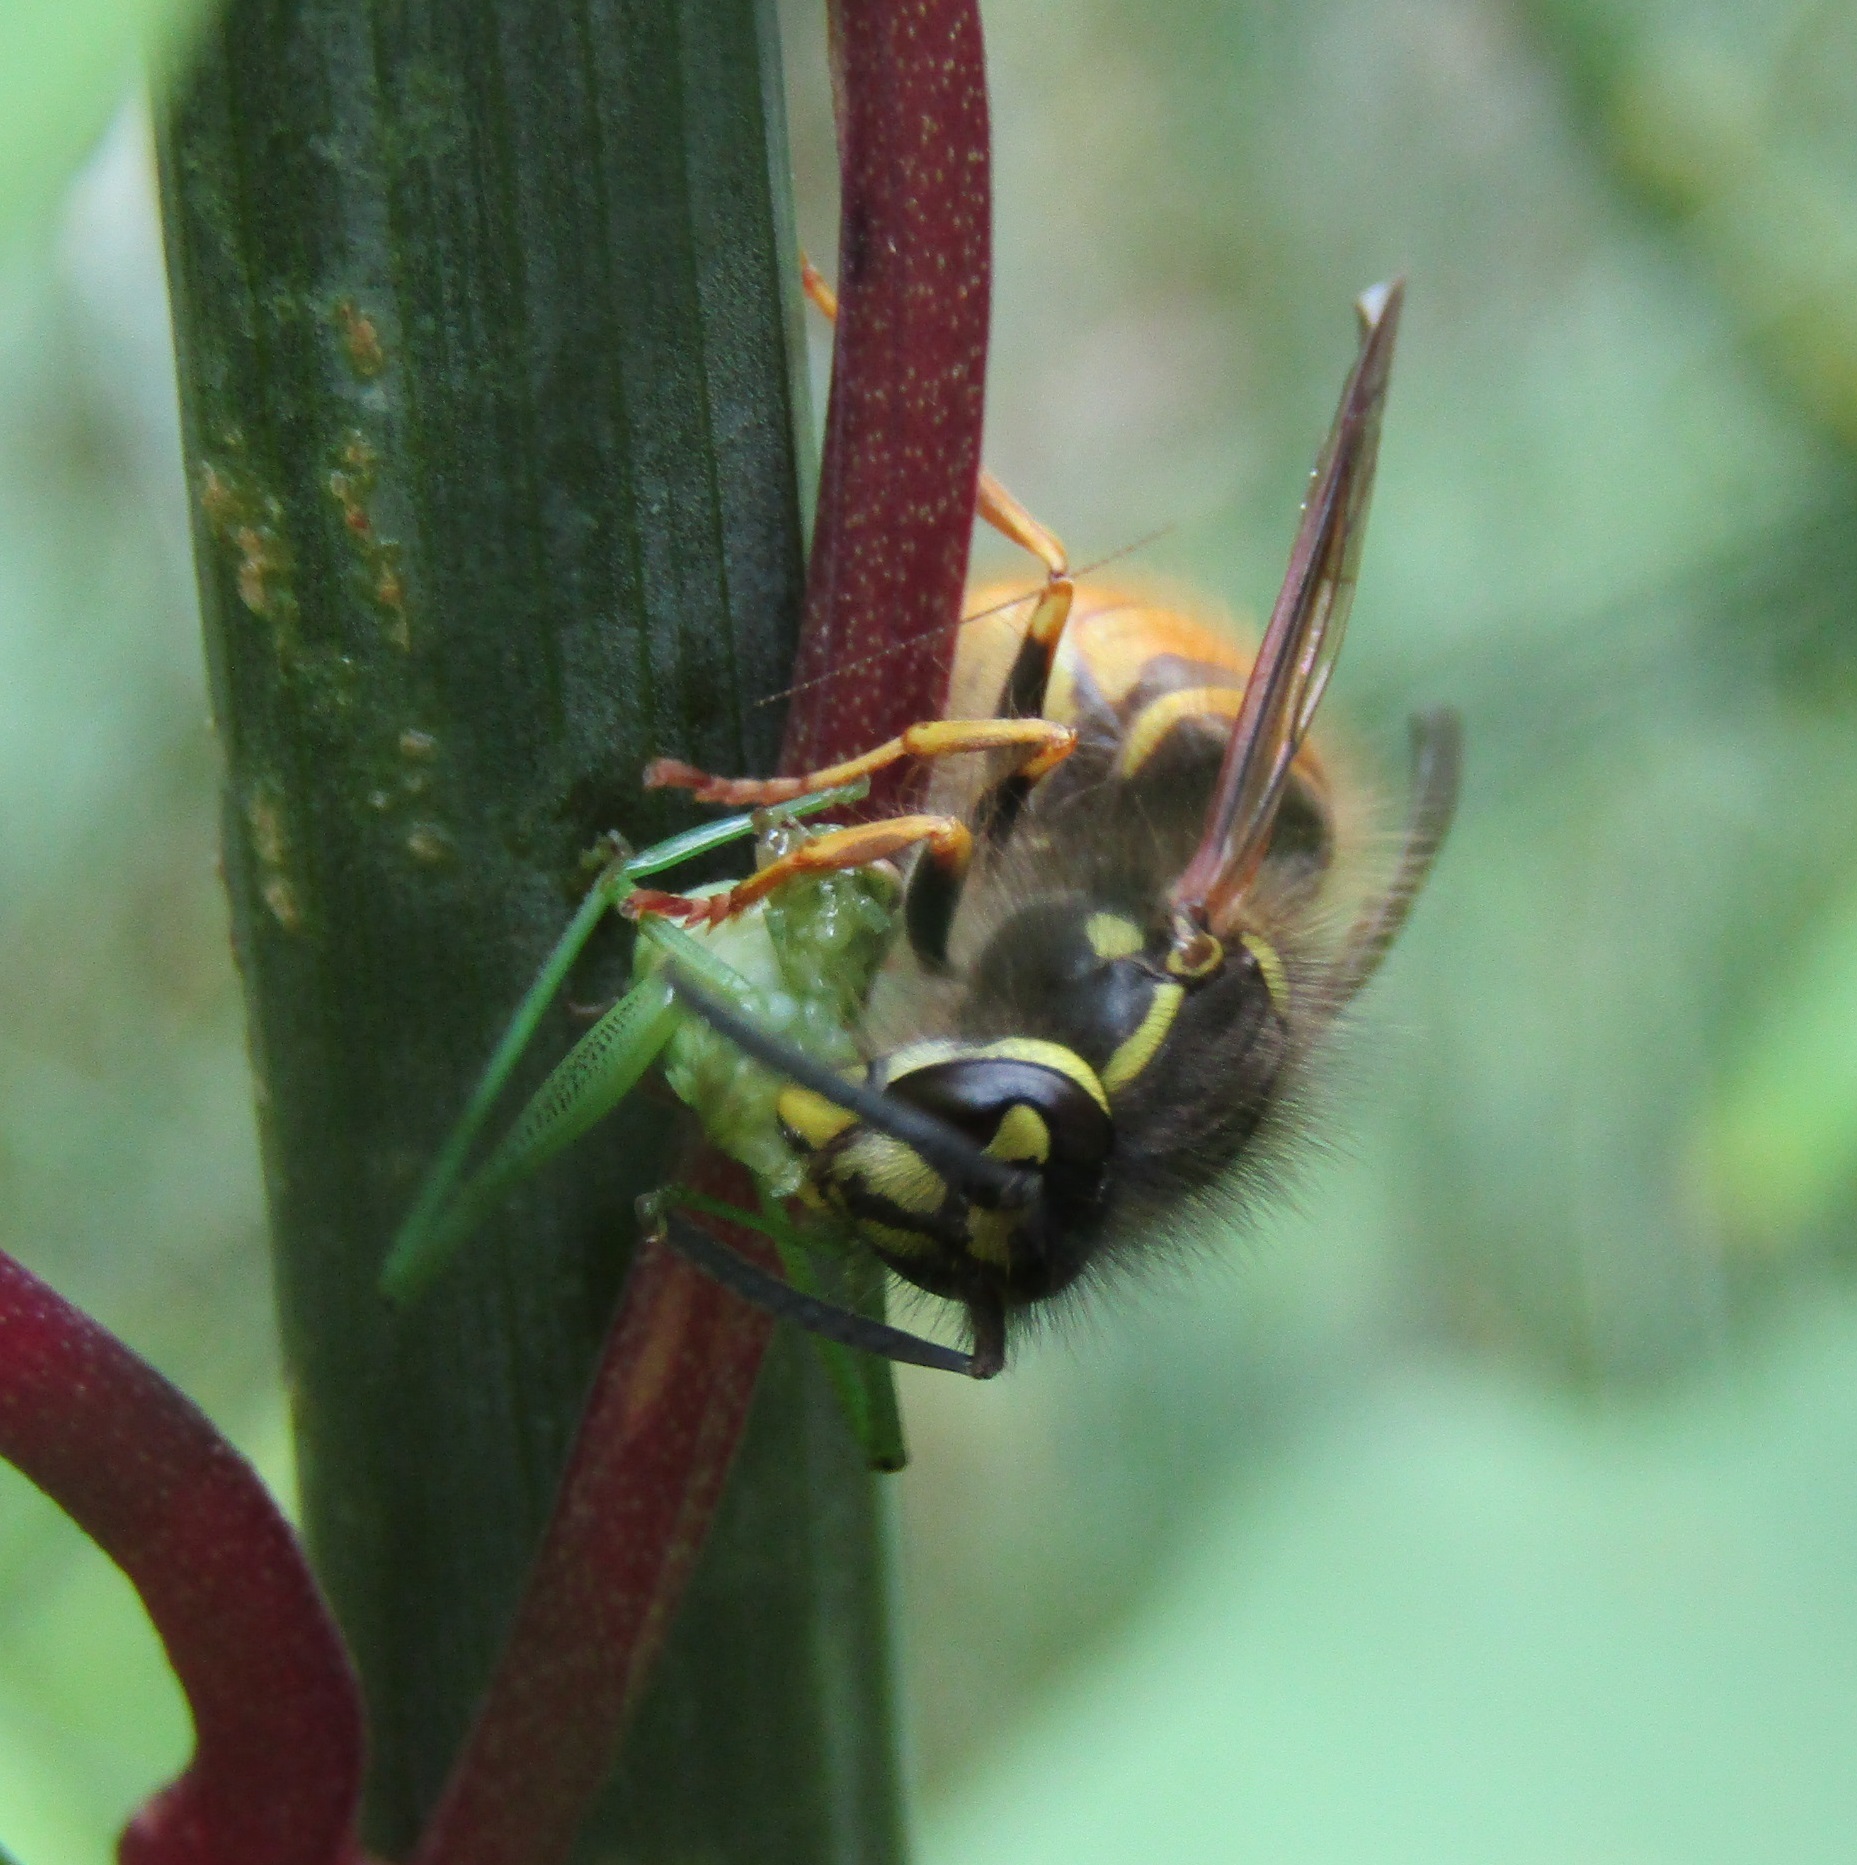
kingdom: Animalia
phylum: Arthropoda
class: Insecta
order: Hymenoptera
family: Vespidae
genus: Vespula
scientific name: Vespula vulgaris
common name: Common wasp
